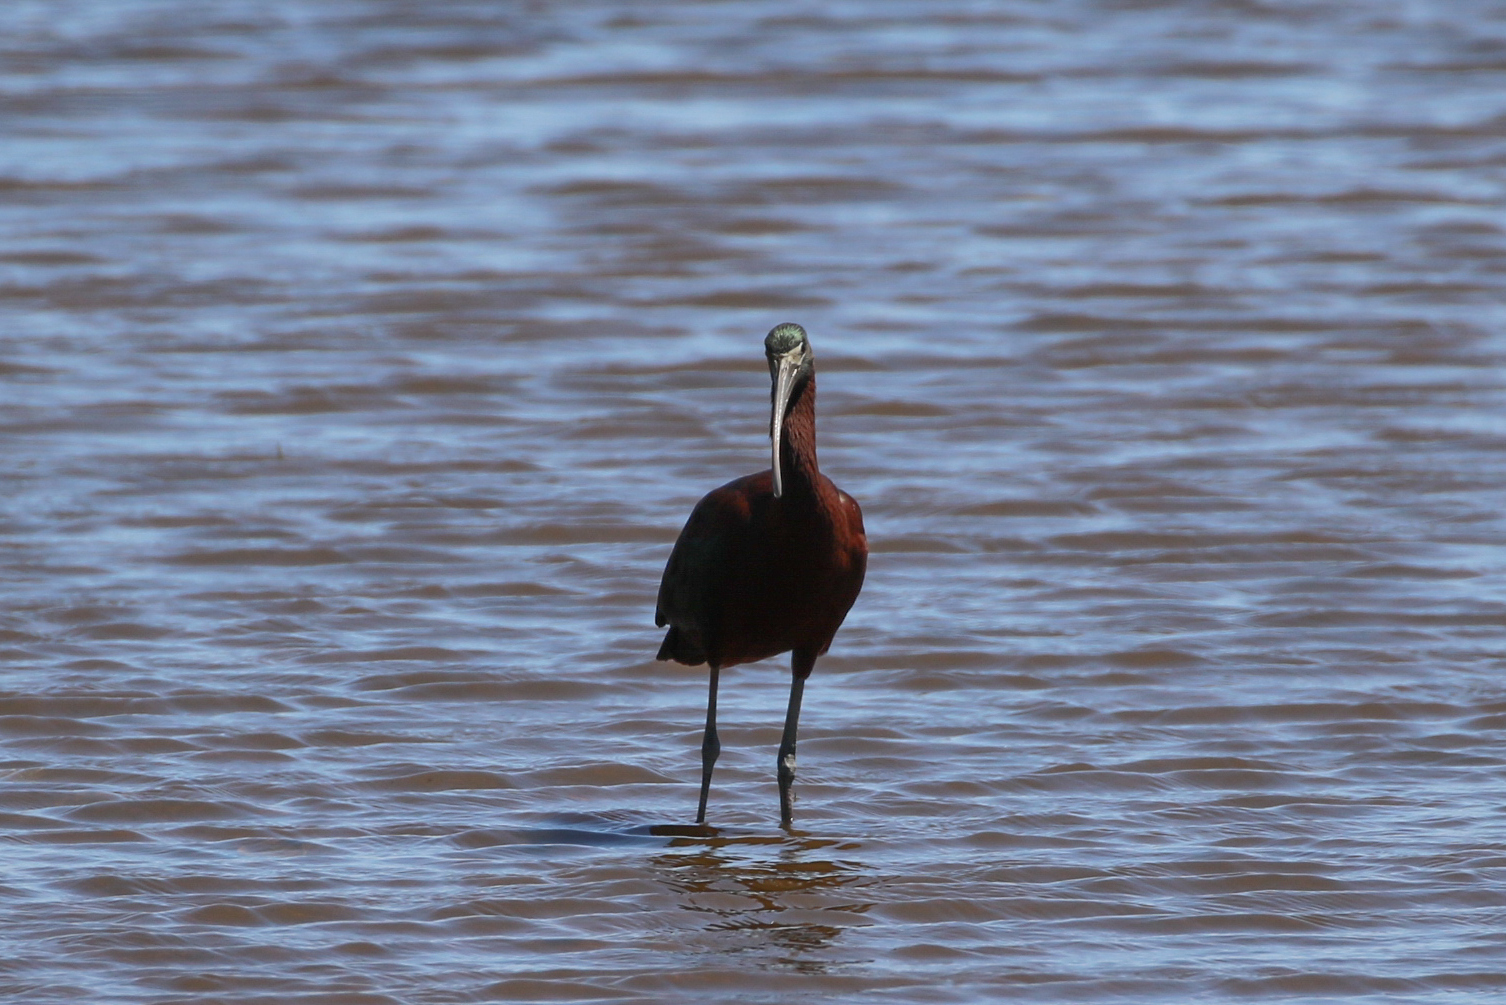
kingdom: Animalia
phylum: Chordata
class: Aves
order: Pelecaniformes
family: Threskiornithidae
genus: Plegadis
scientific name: Plegadis falcinellus
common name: Glossy ibis
